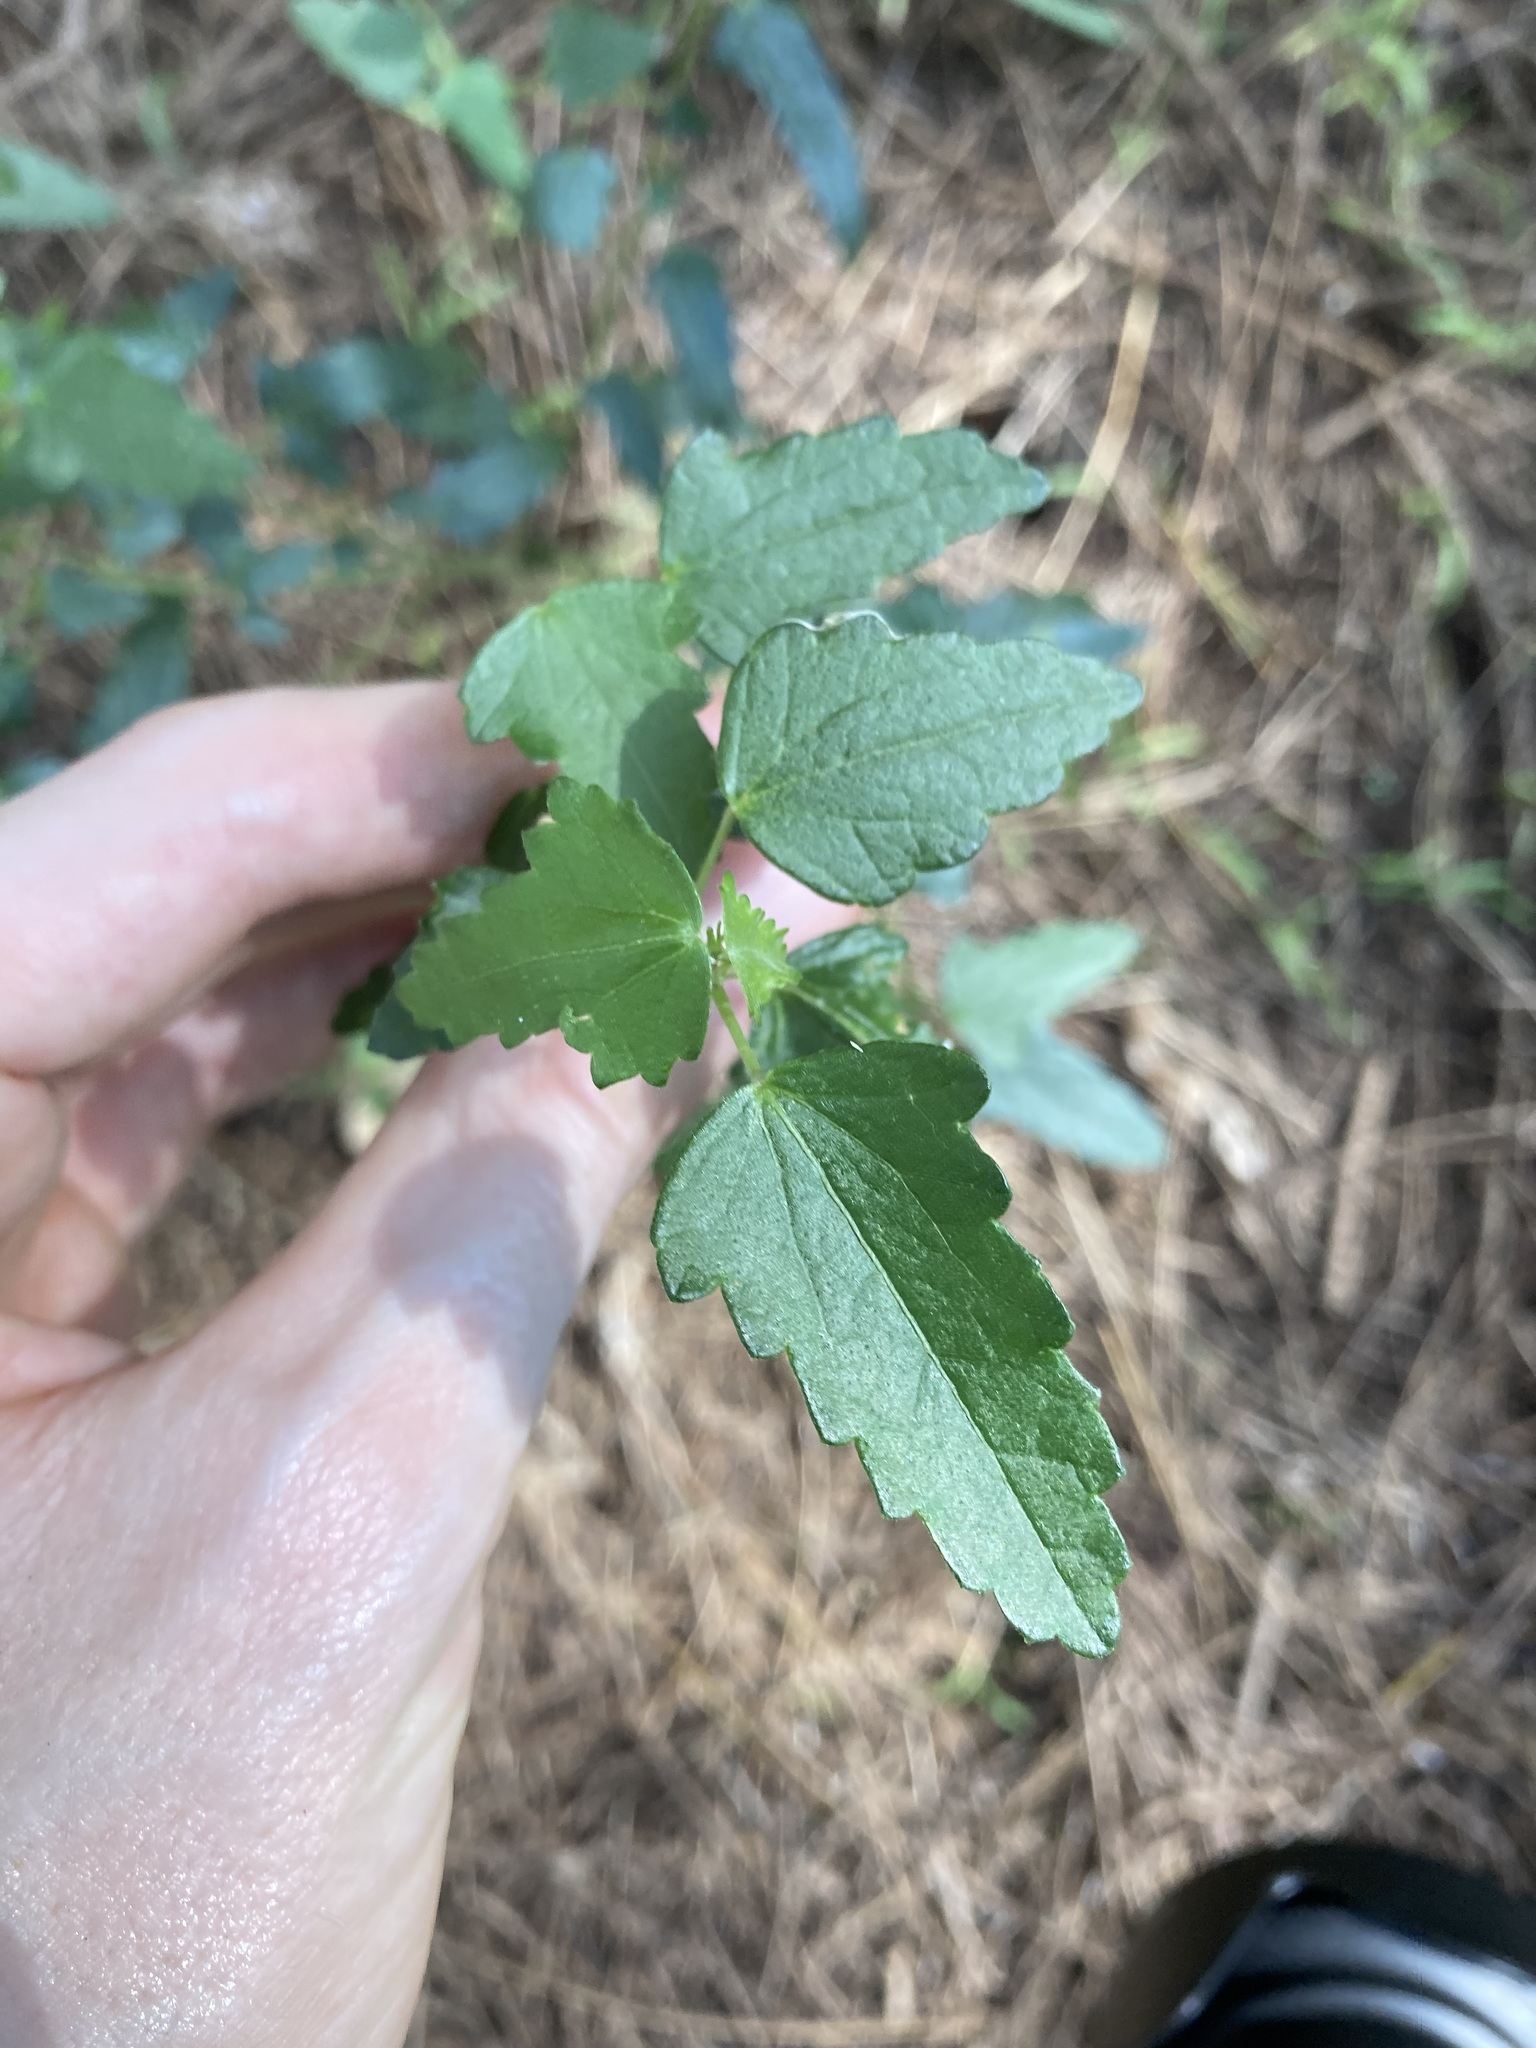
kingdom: Plantae
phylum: Tracheophyta
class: Magnoliopsida
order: Malvales
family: Malvaceae
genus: Pavonia
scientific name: Pavonia hastata
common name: Spearleaf swampmallow
